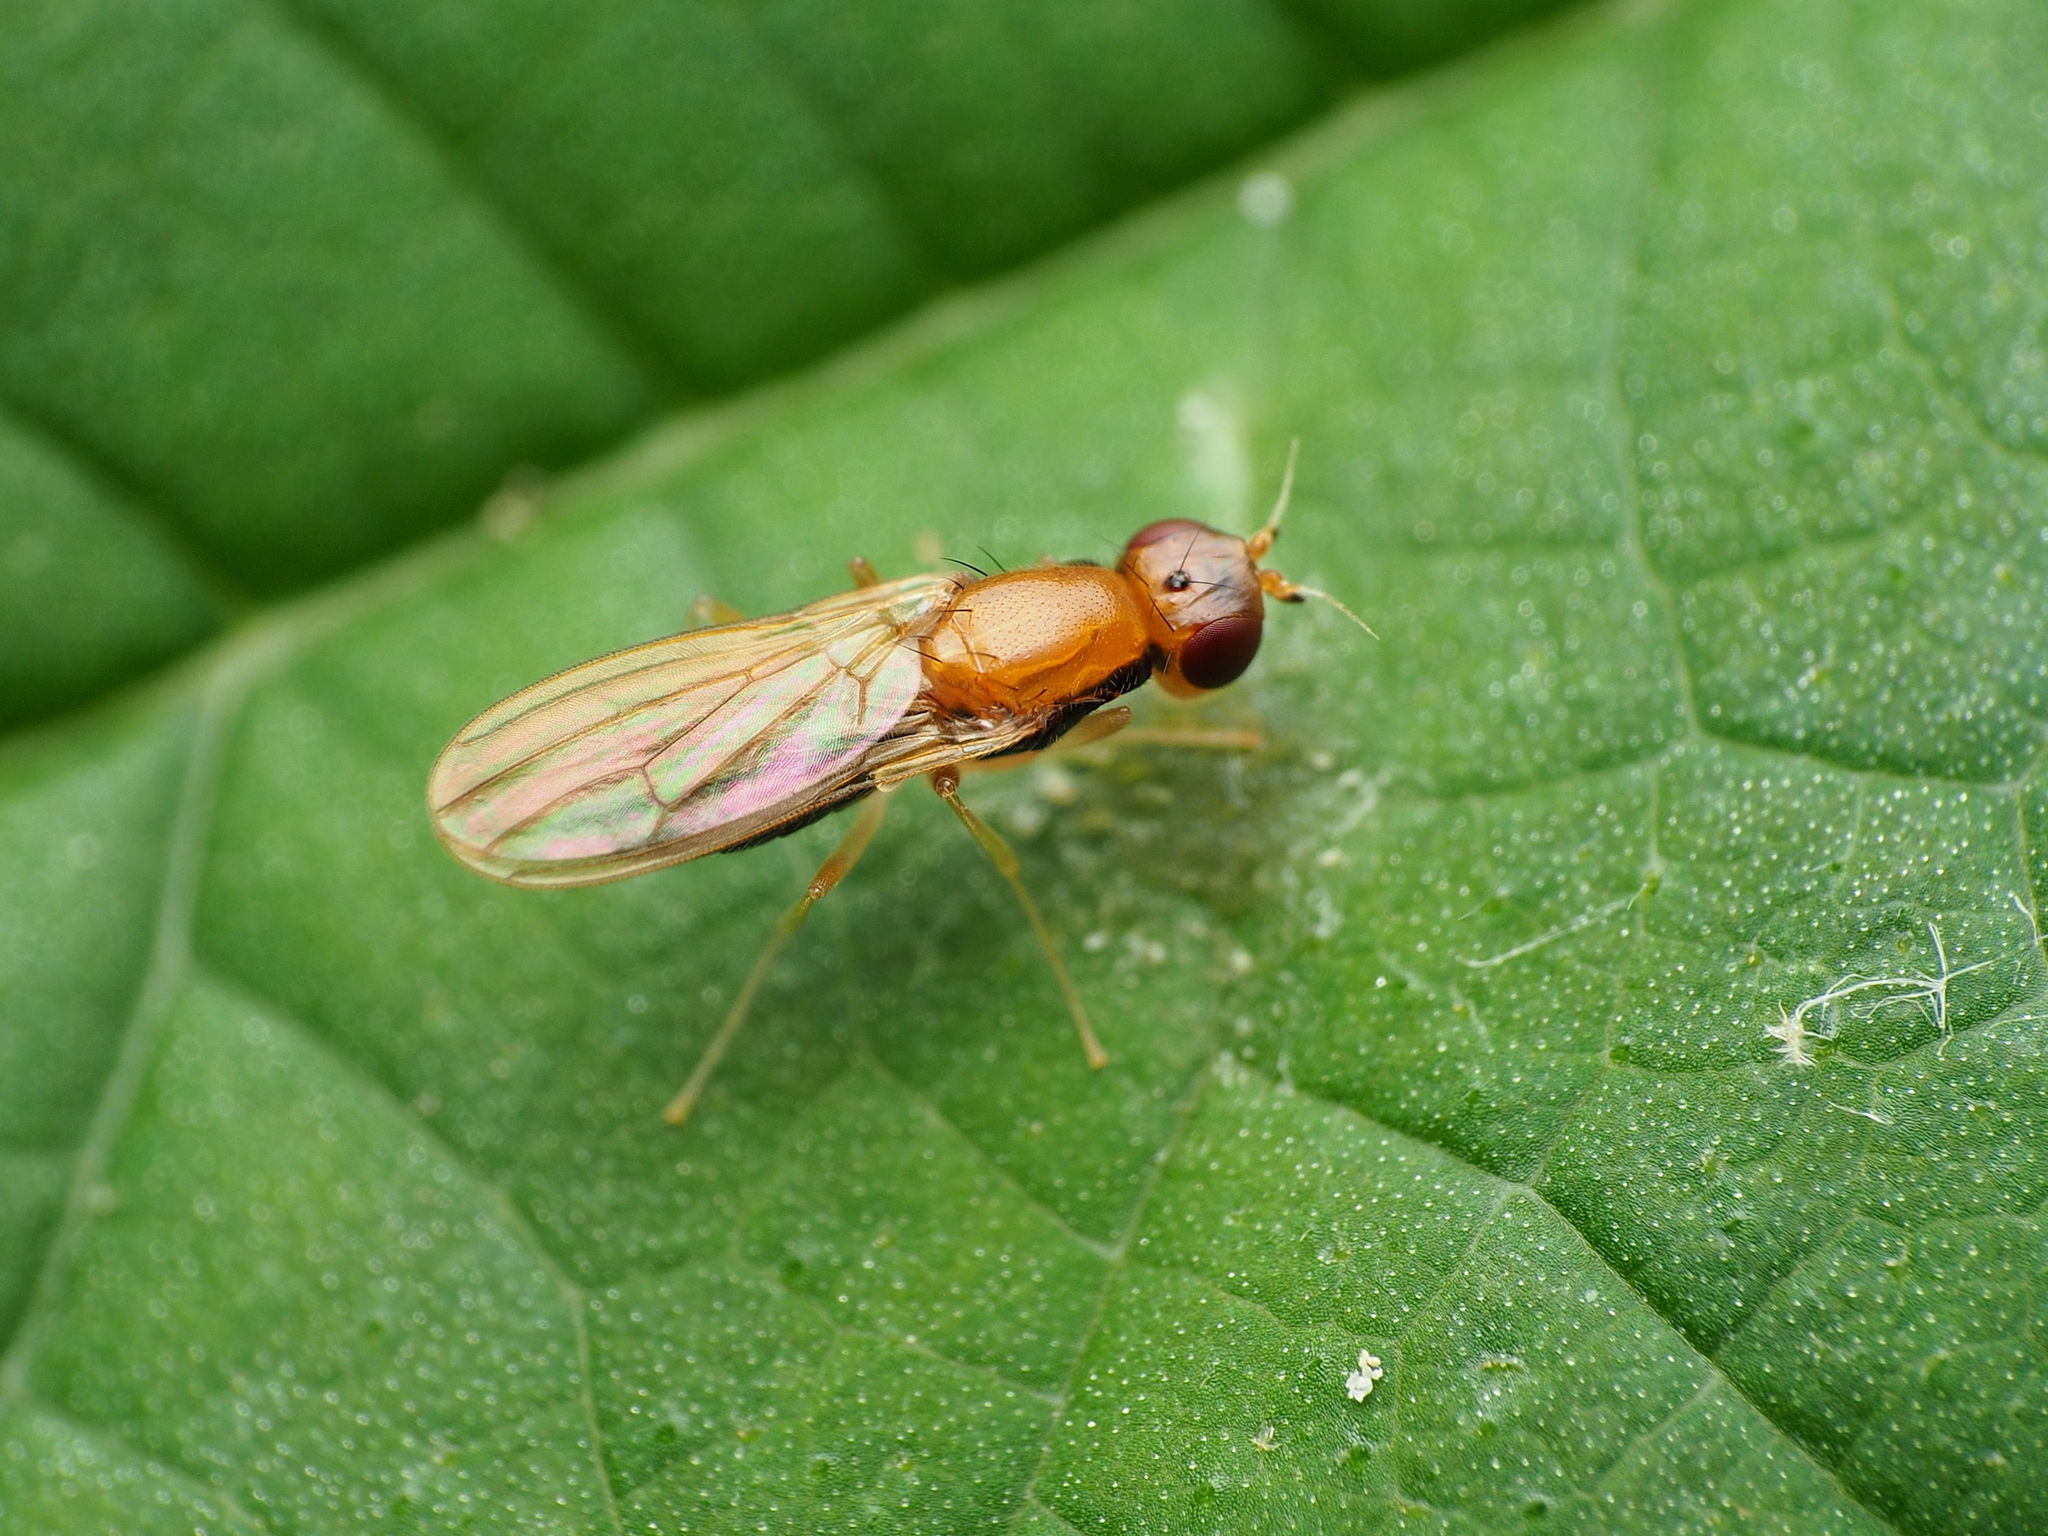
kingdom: Animalia
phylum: Arthropoda
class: Insecta
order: Diptera
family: Psilidae
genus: Psila
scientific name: Psila lateralis
